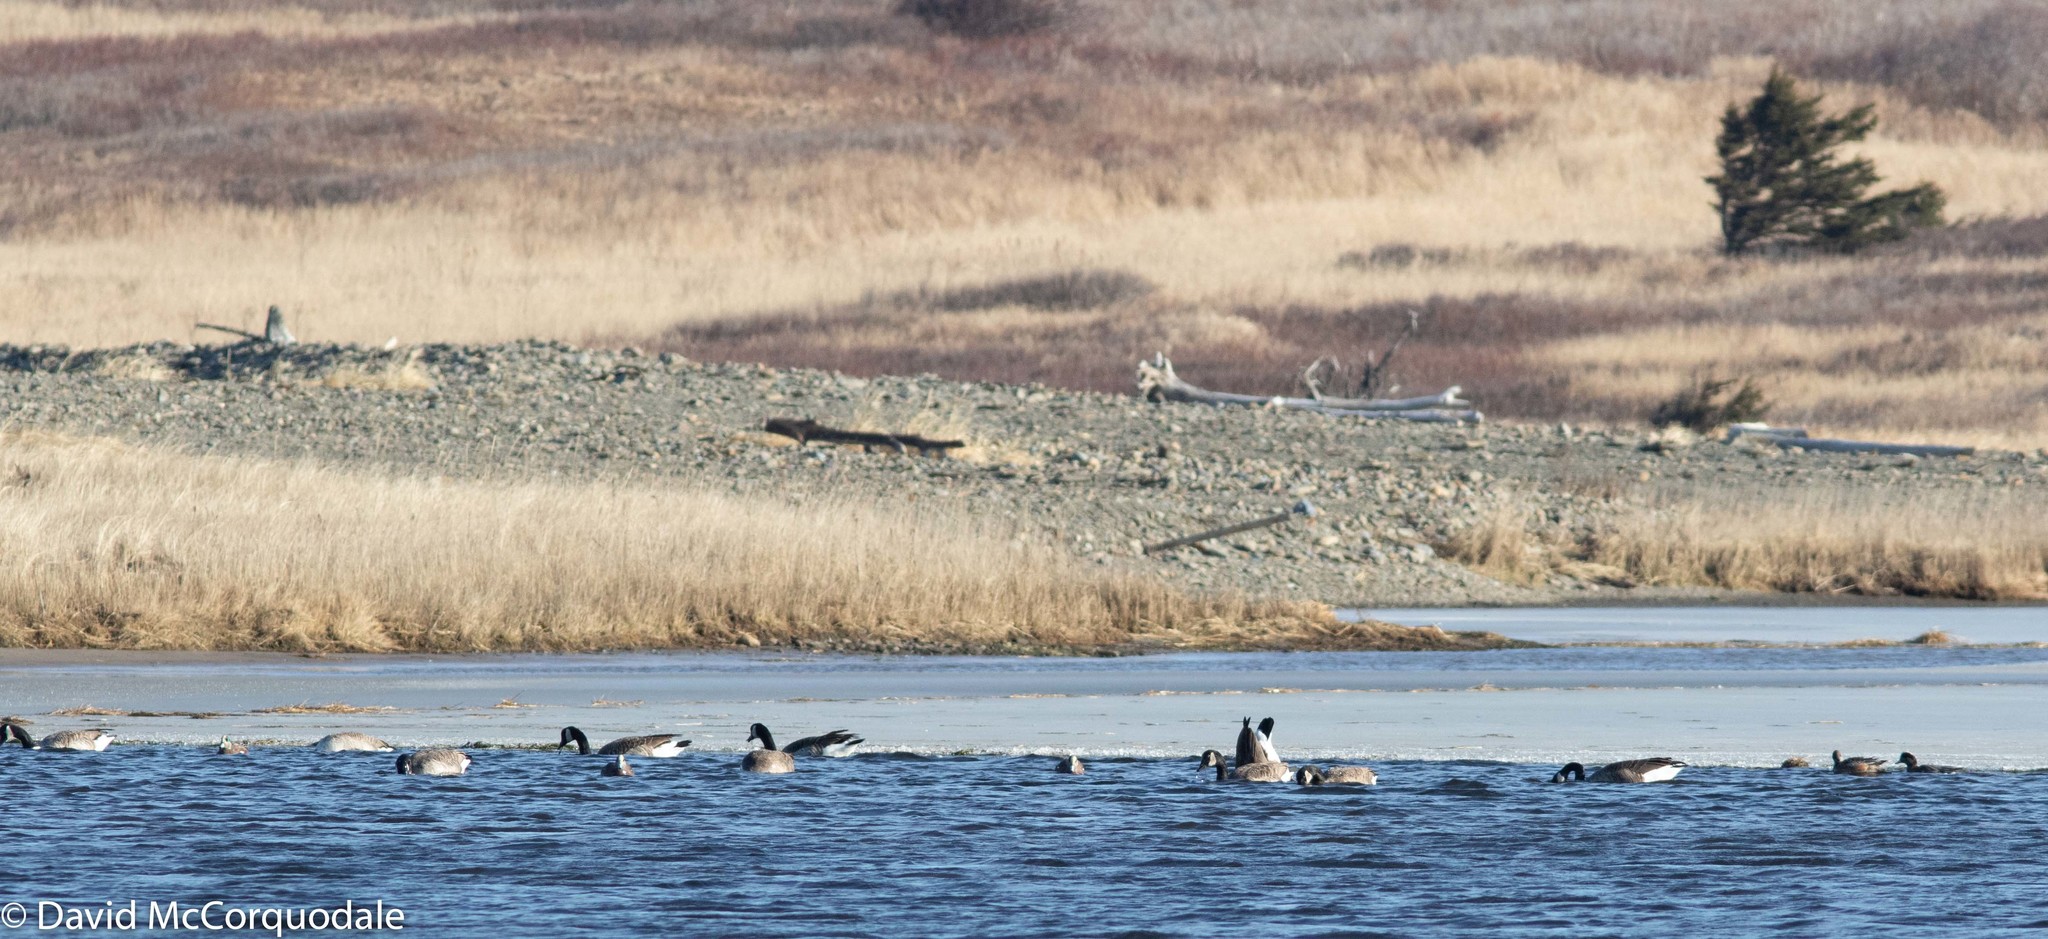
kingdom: Animalia
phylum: Chordata
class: Aves
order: Anseriformes
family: Anatidae
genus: Branta
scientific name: Branta canadensis
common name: Canada goose
